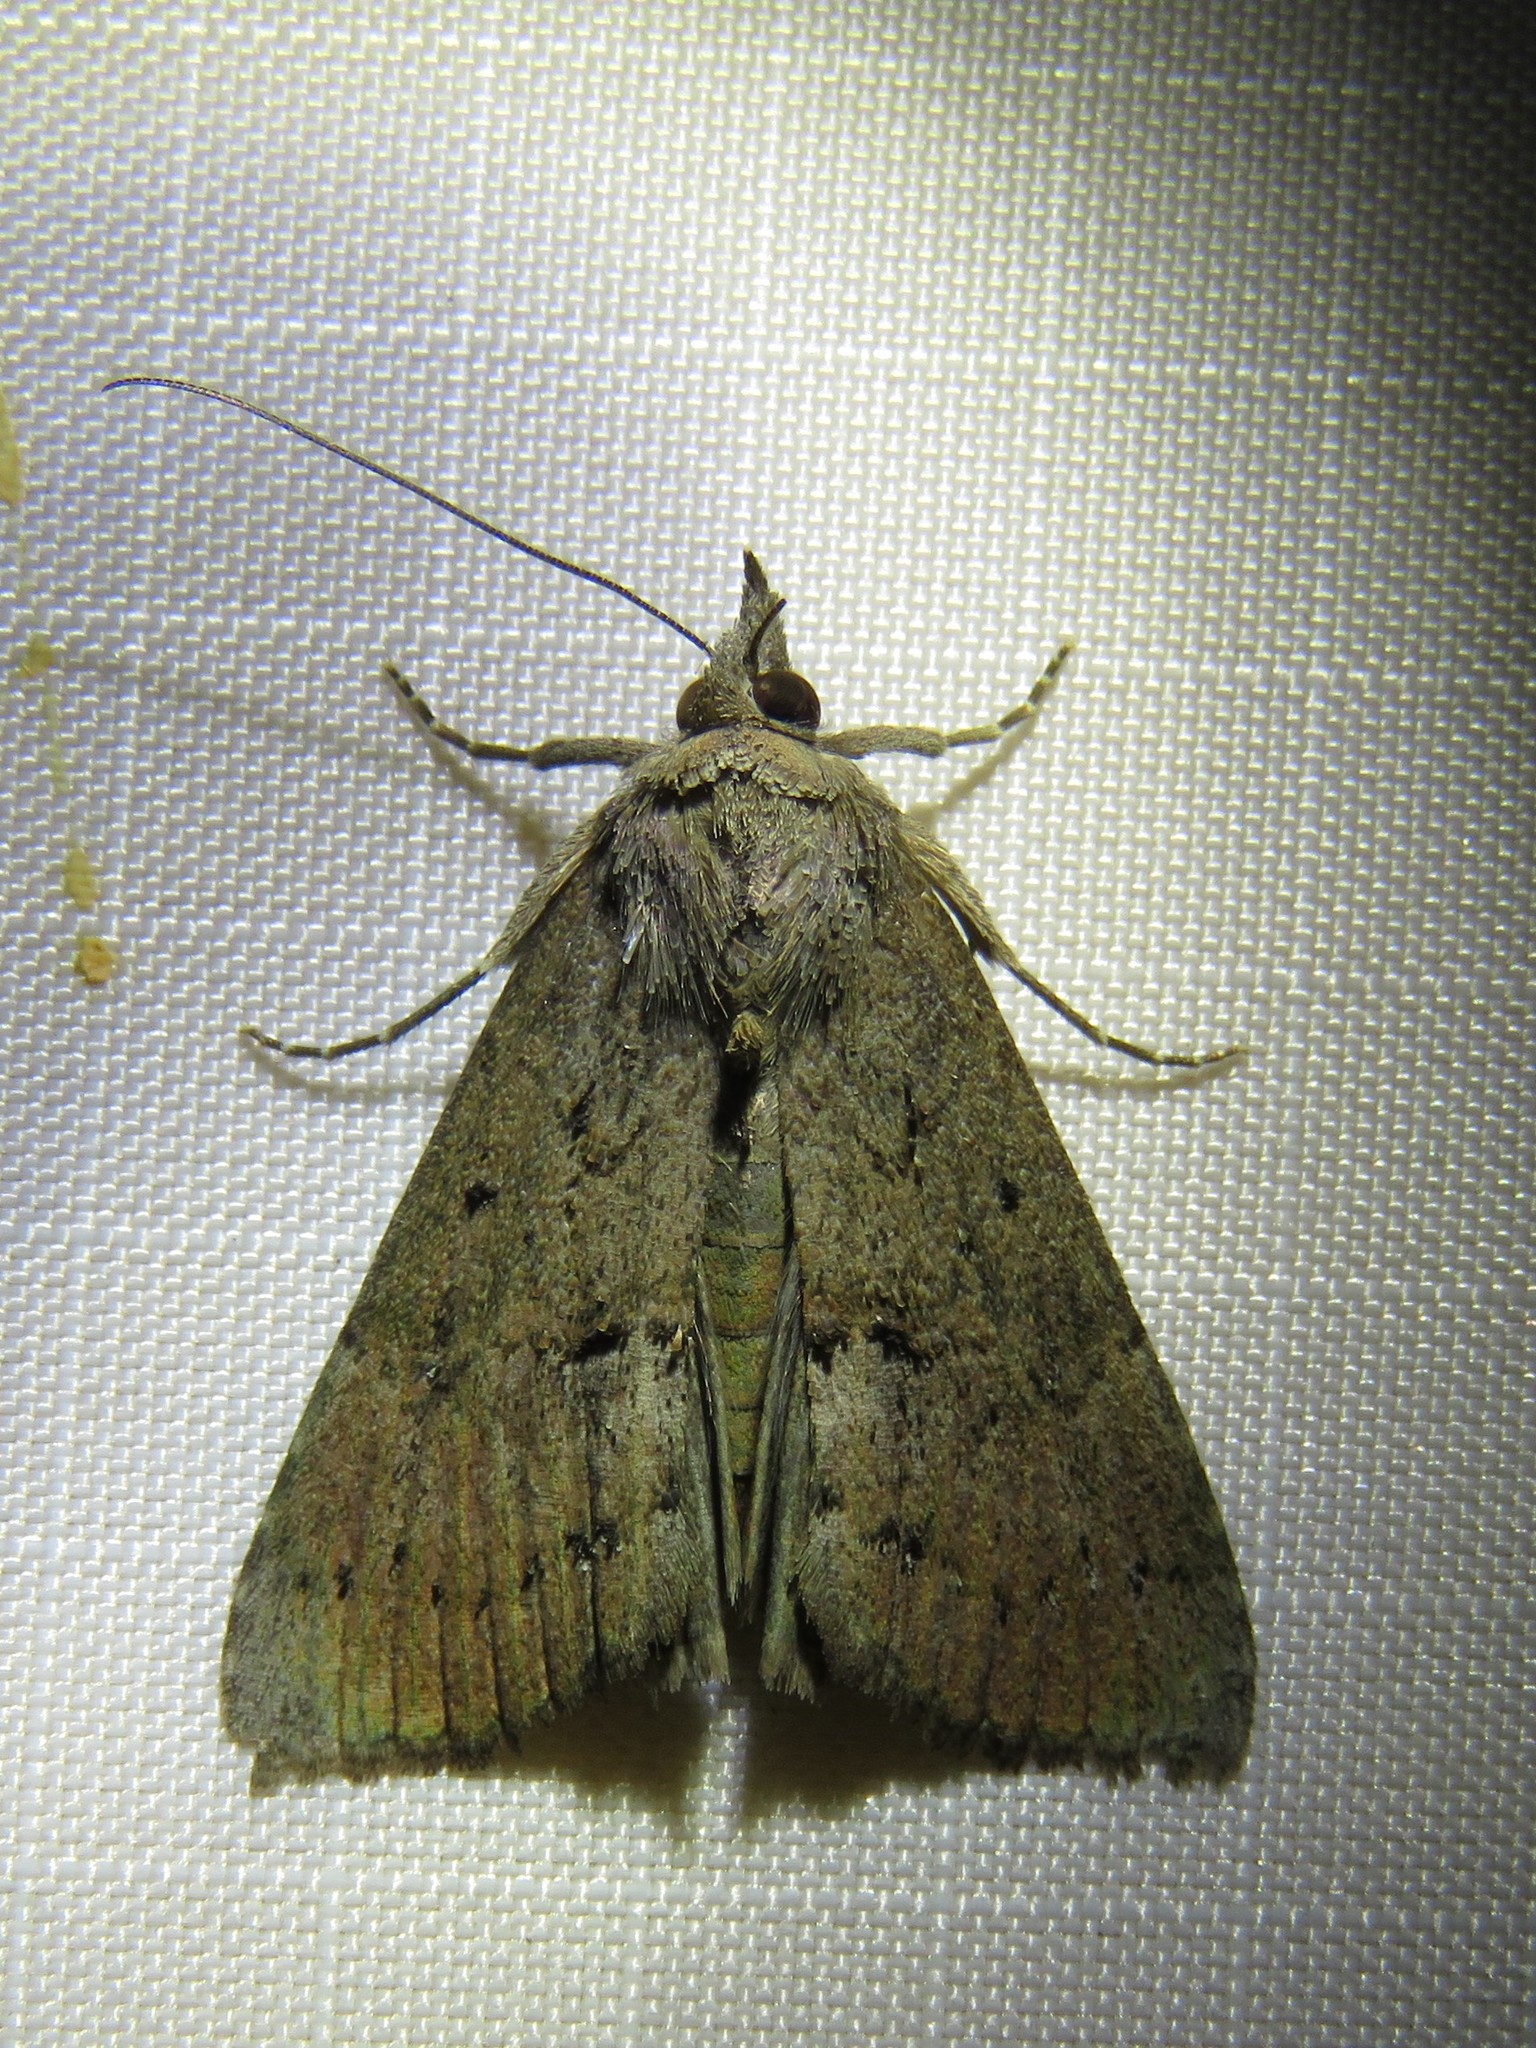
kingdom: Animalia
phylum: Arthropoda
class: Insecta
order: Lepidoptera
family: Erebidae
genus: Hypena
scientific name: Hypena scabra
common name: Green cloverworm
